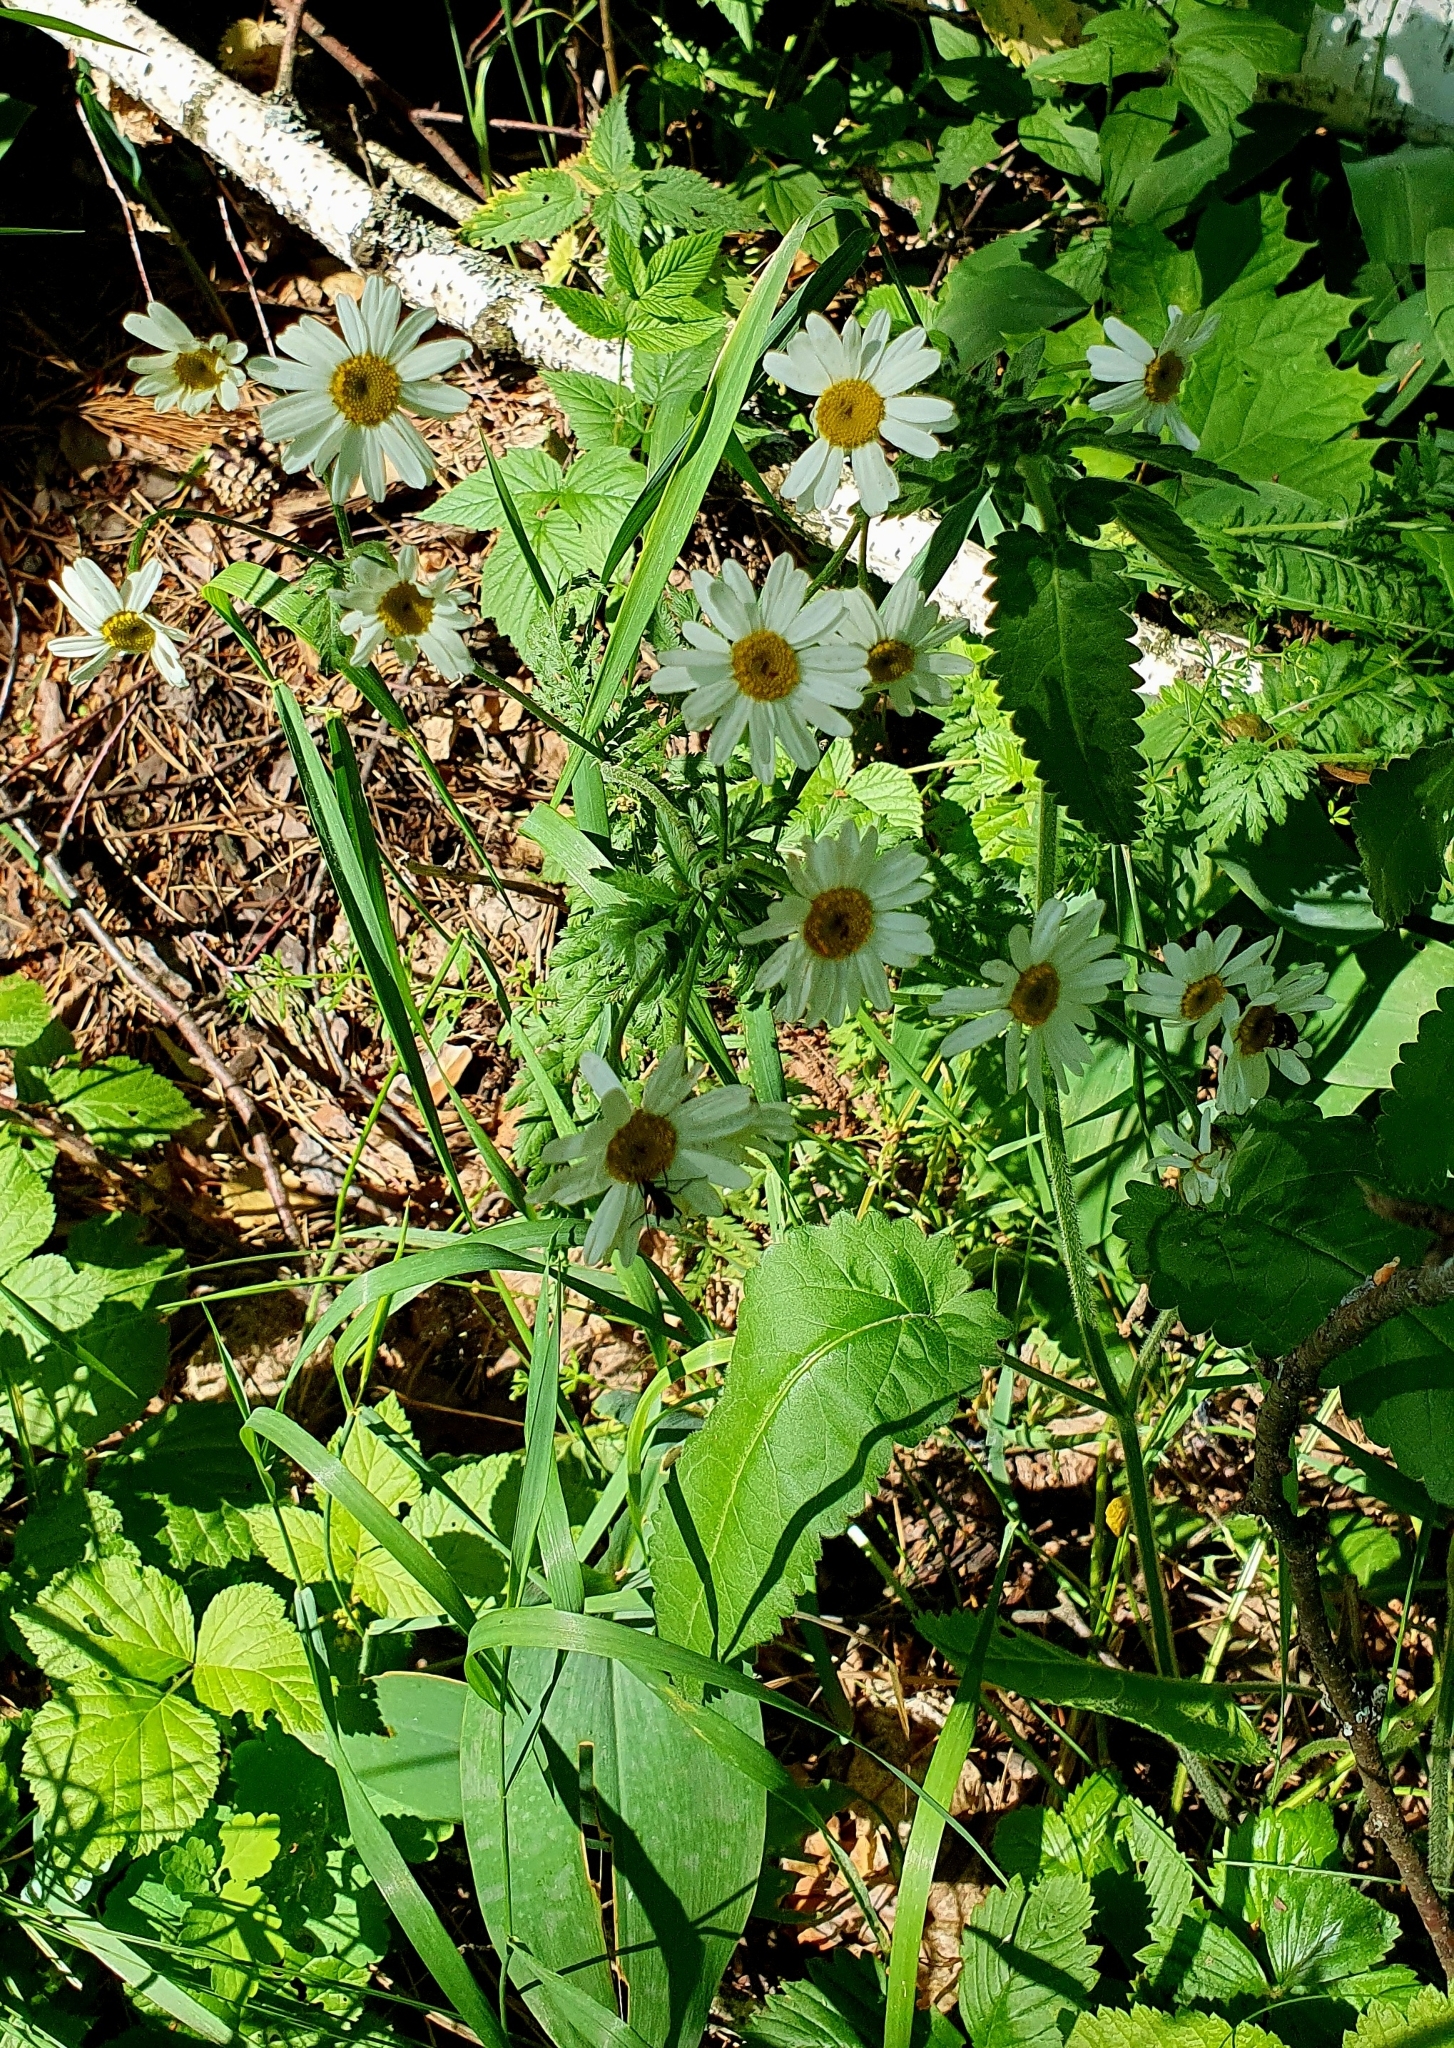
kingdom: Plantae
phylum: Tracheophyta
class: Magnoliopsida
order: Asterales
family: Asteraceae
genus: Tanacetum
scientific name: Tanacetum corymbosum
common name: Scentless feverfew
